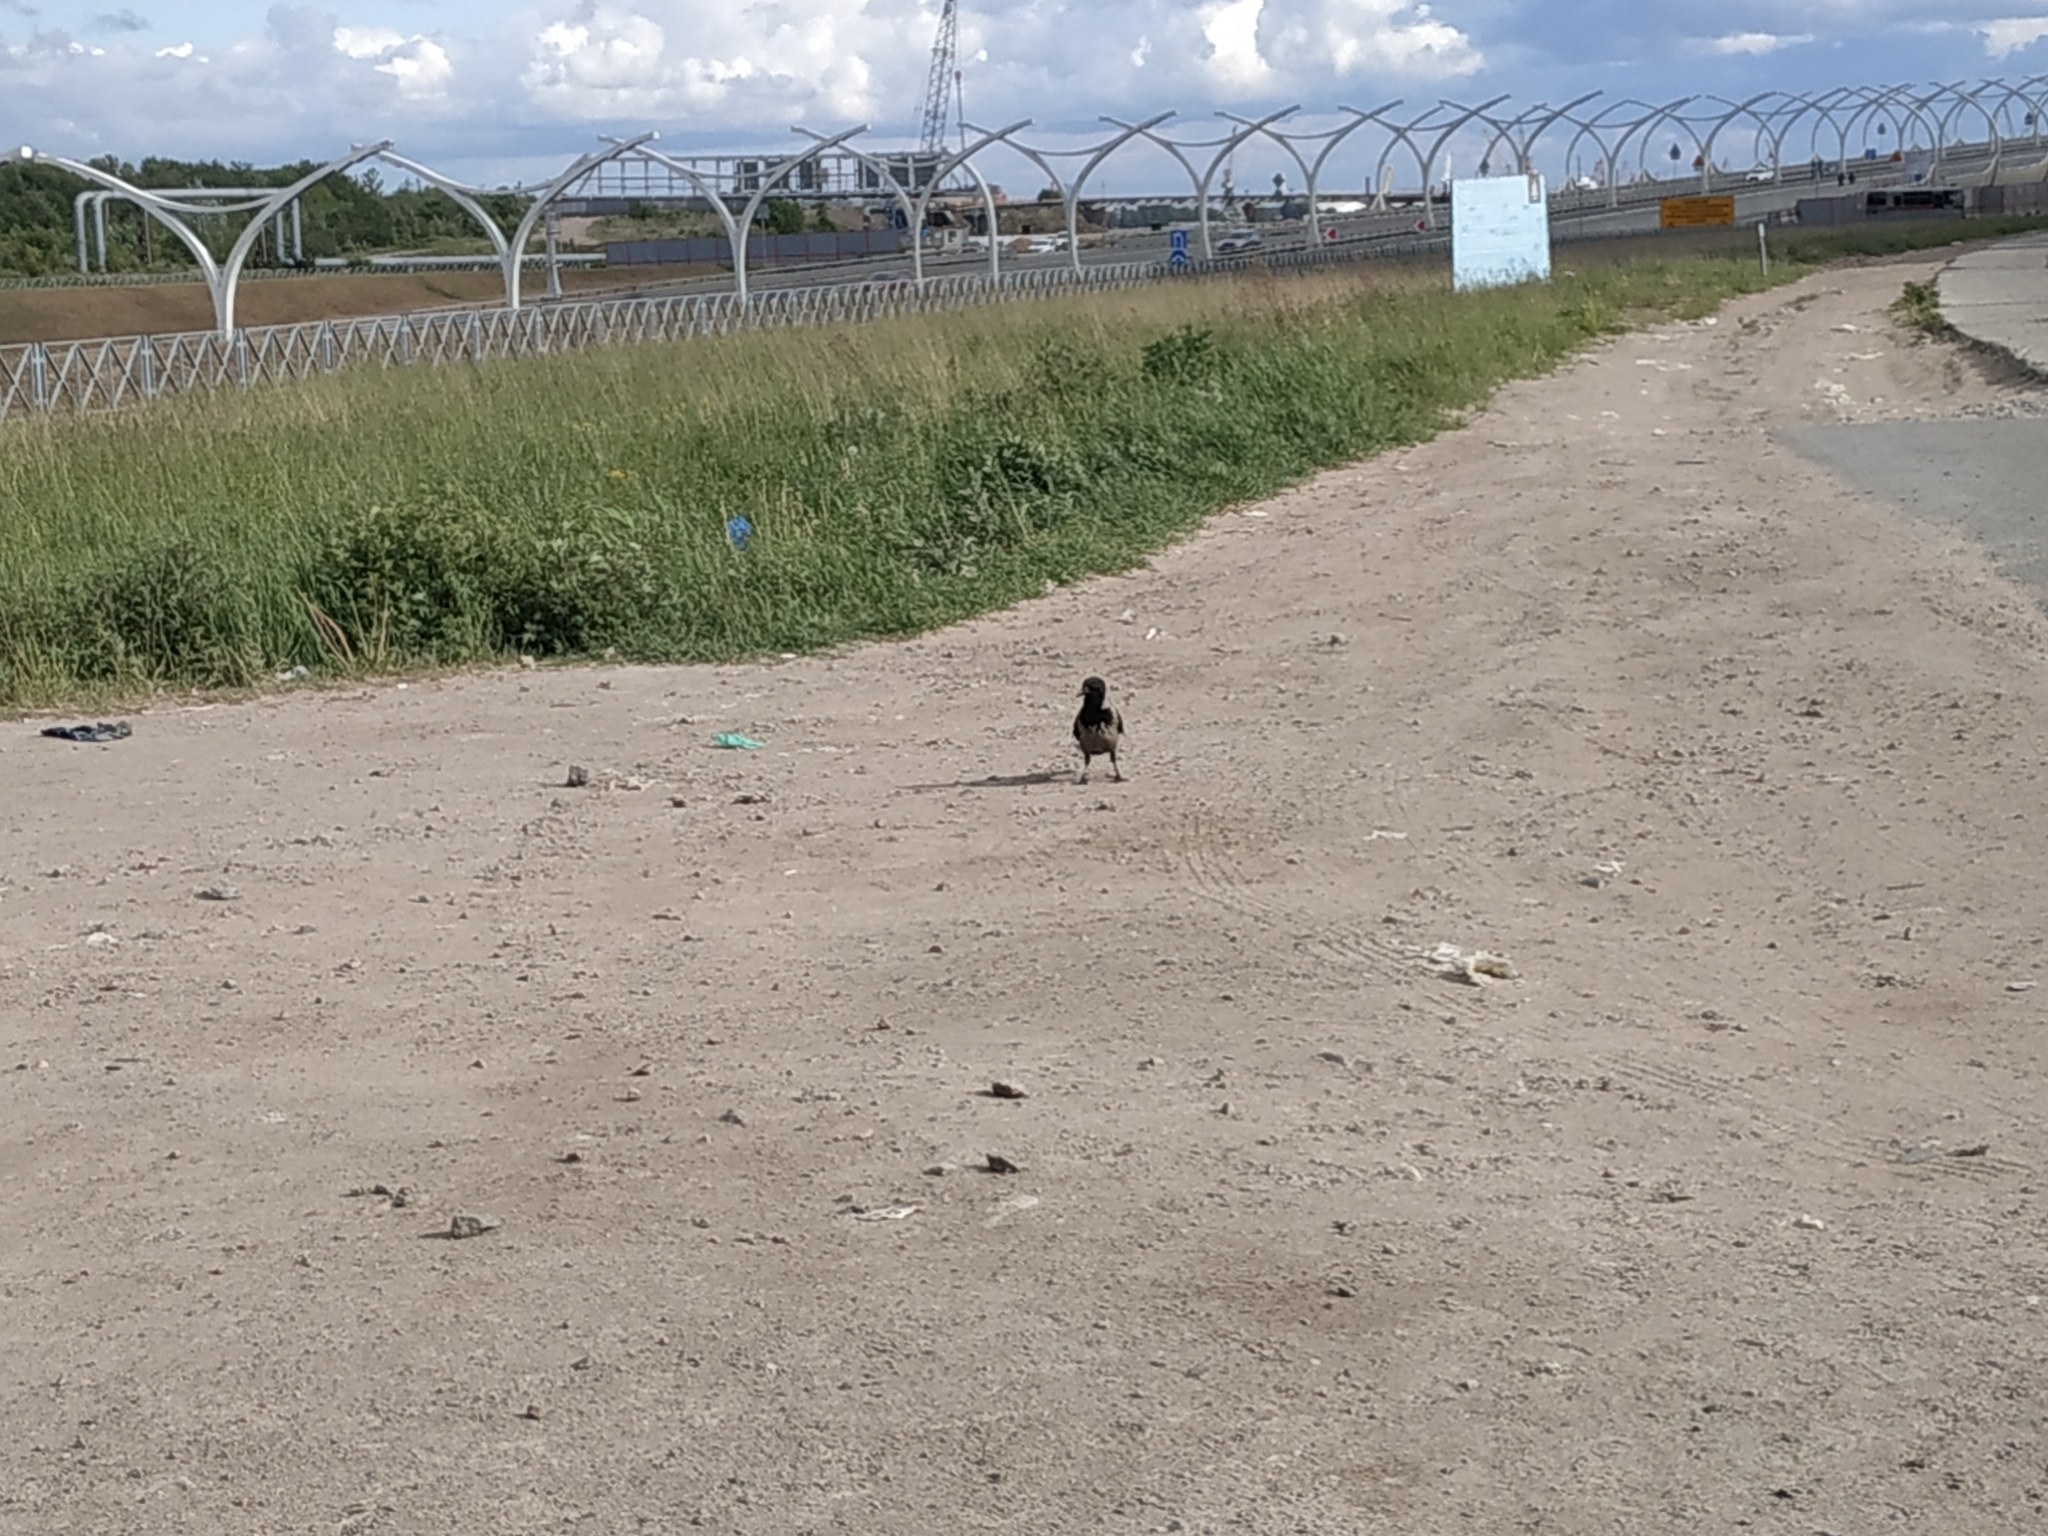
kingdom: Animalia
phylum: Chordata
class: Aves
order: Passeriformes
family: Corvidae
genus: Corvus
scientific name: Corvus cornix
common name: Hooded crow
